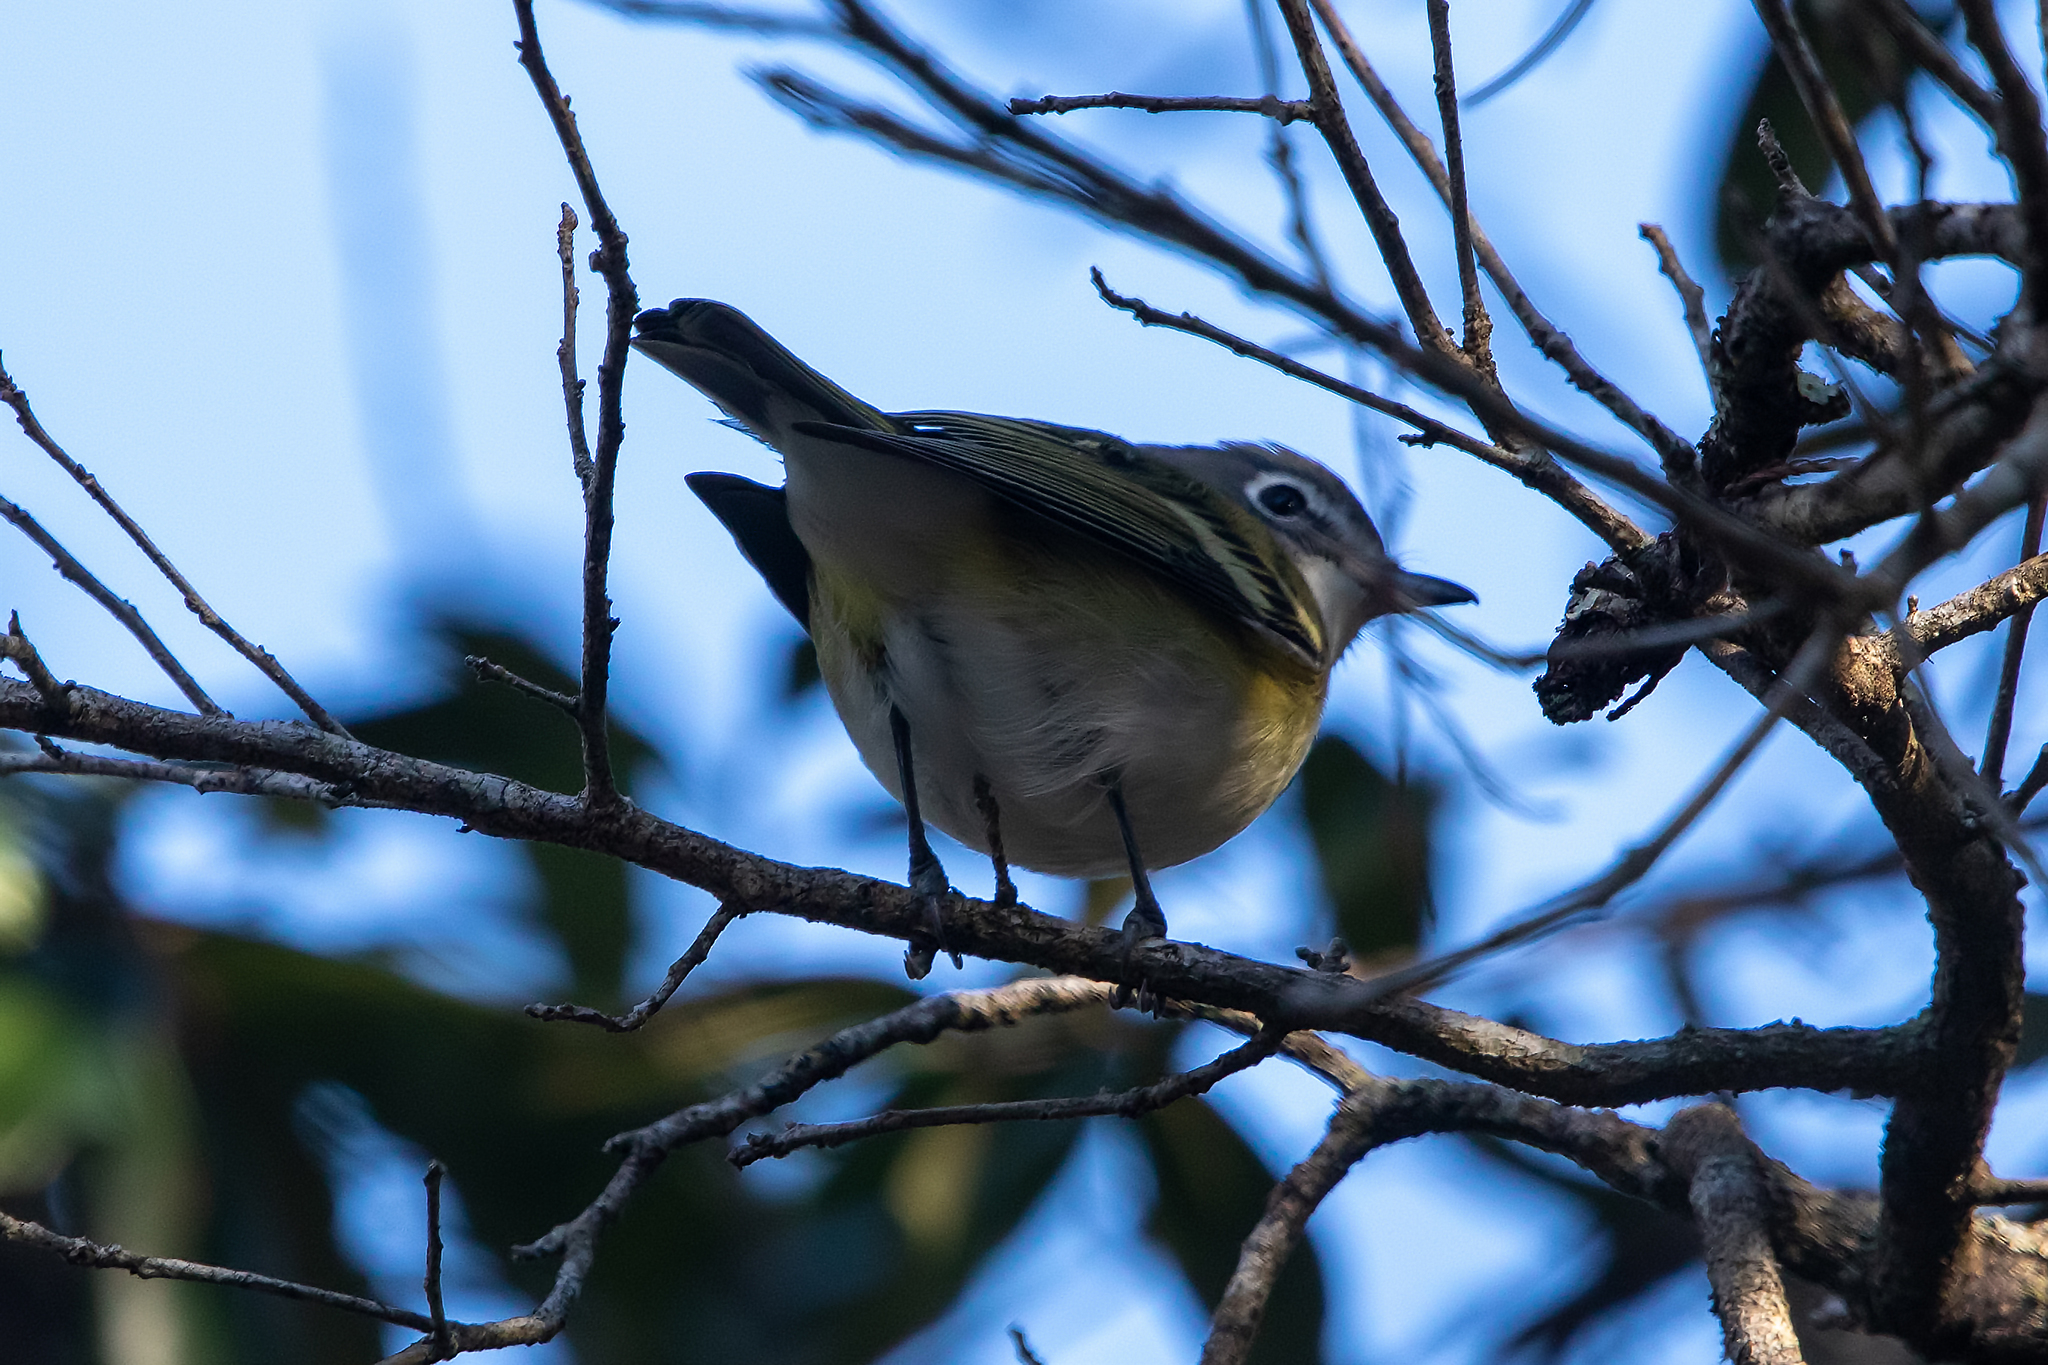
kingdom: Animalia
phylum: Chordata
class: Aves
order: Passeriformes
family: Vireonidae
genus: Vireo
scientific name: Vireo solitarius
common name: Blue-headed vireo
